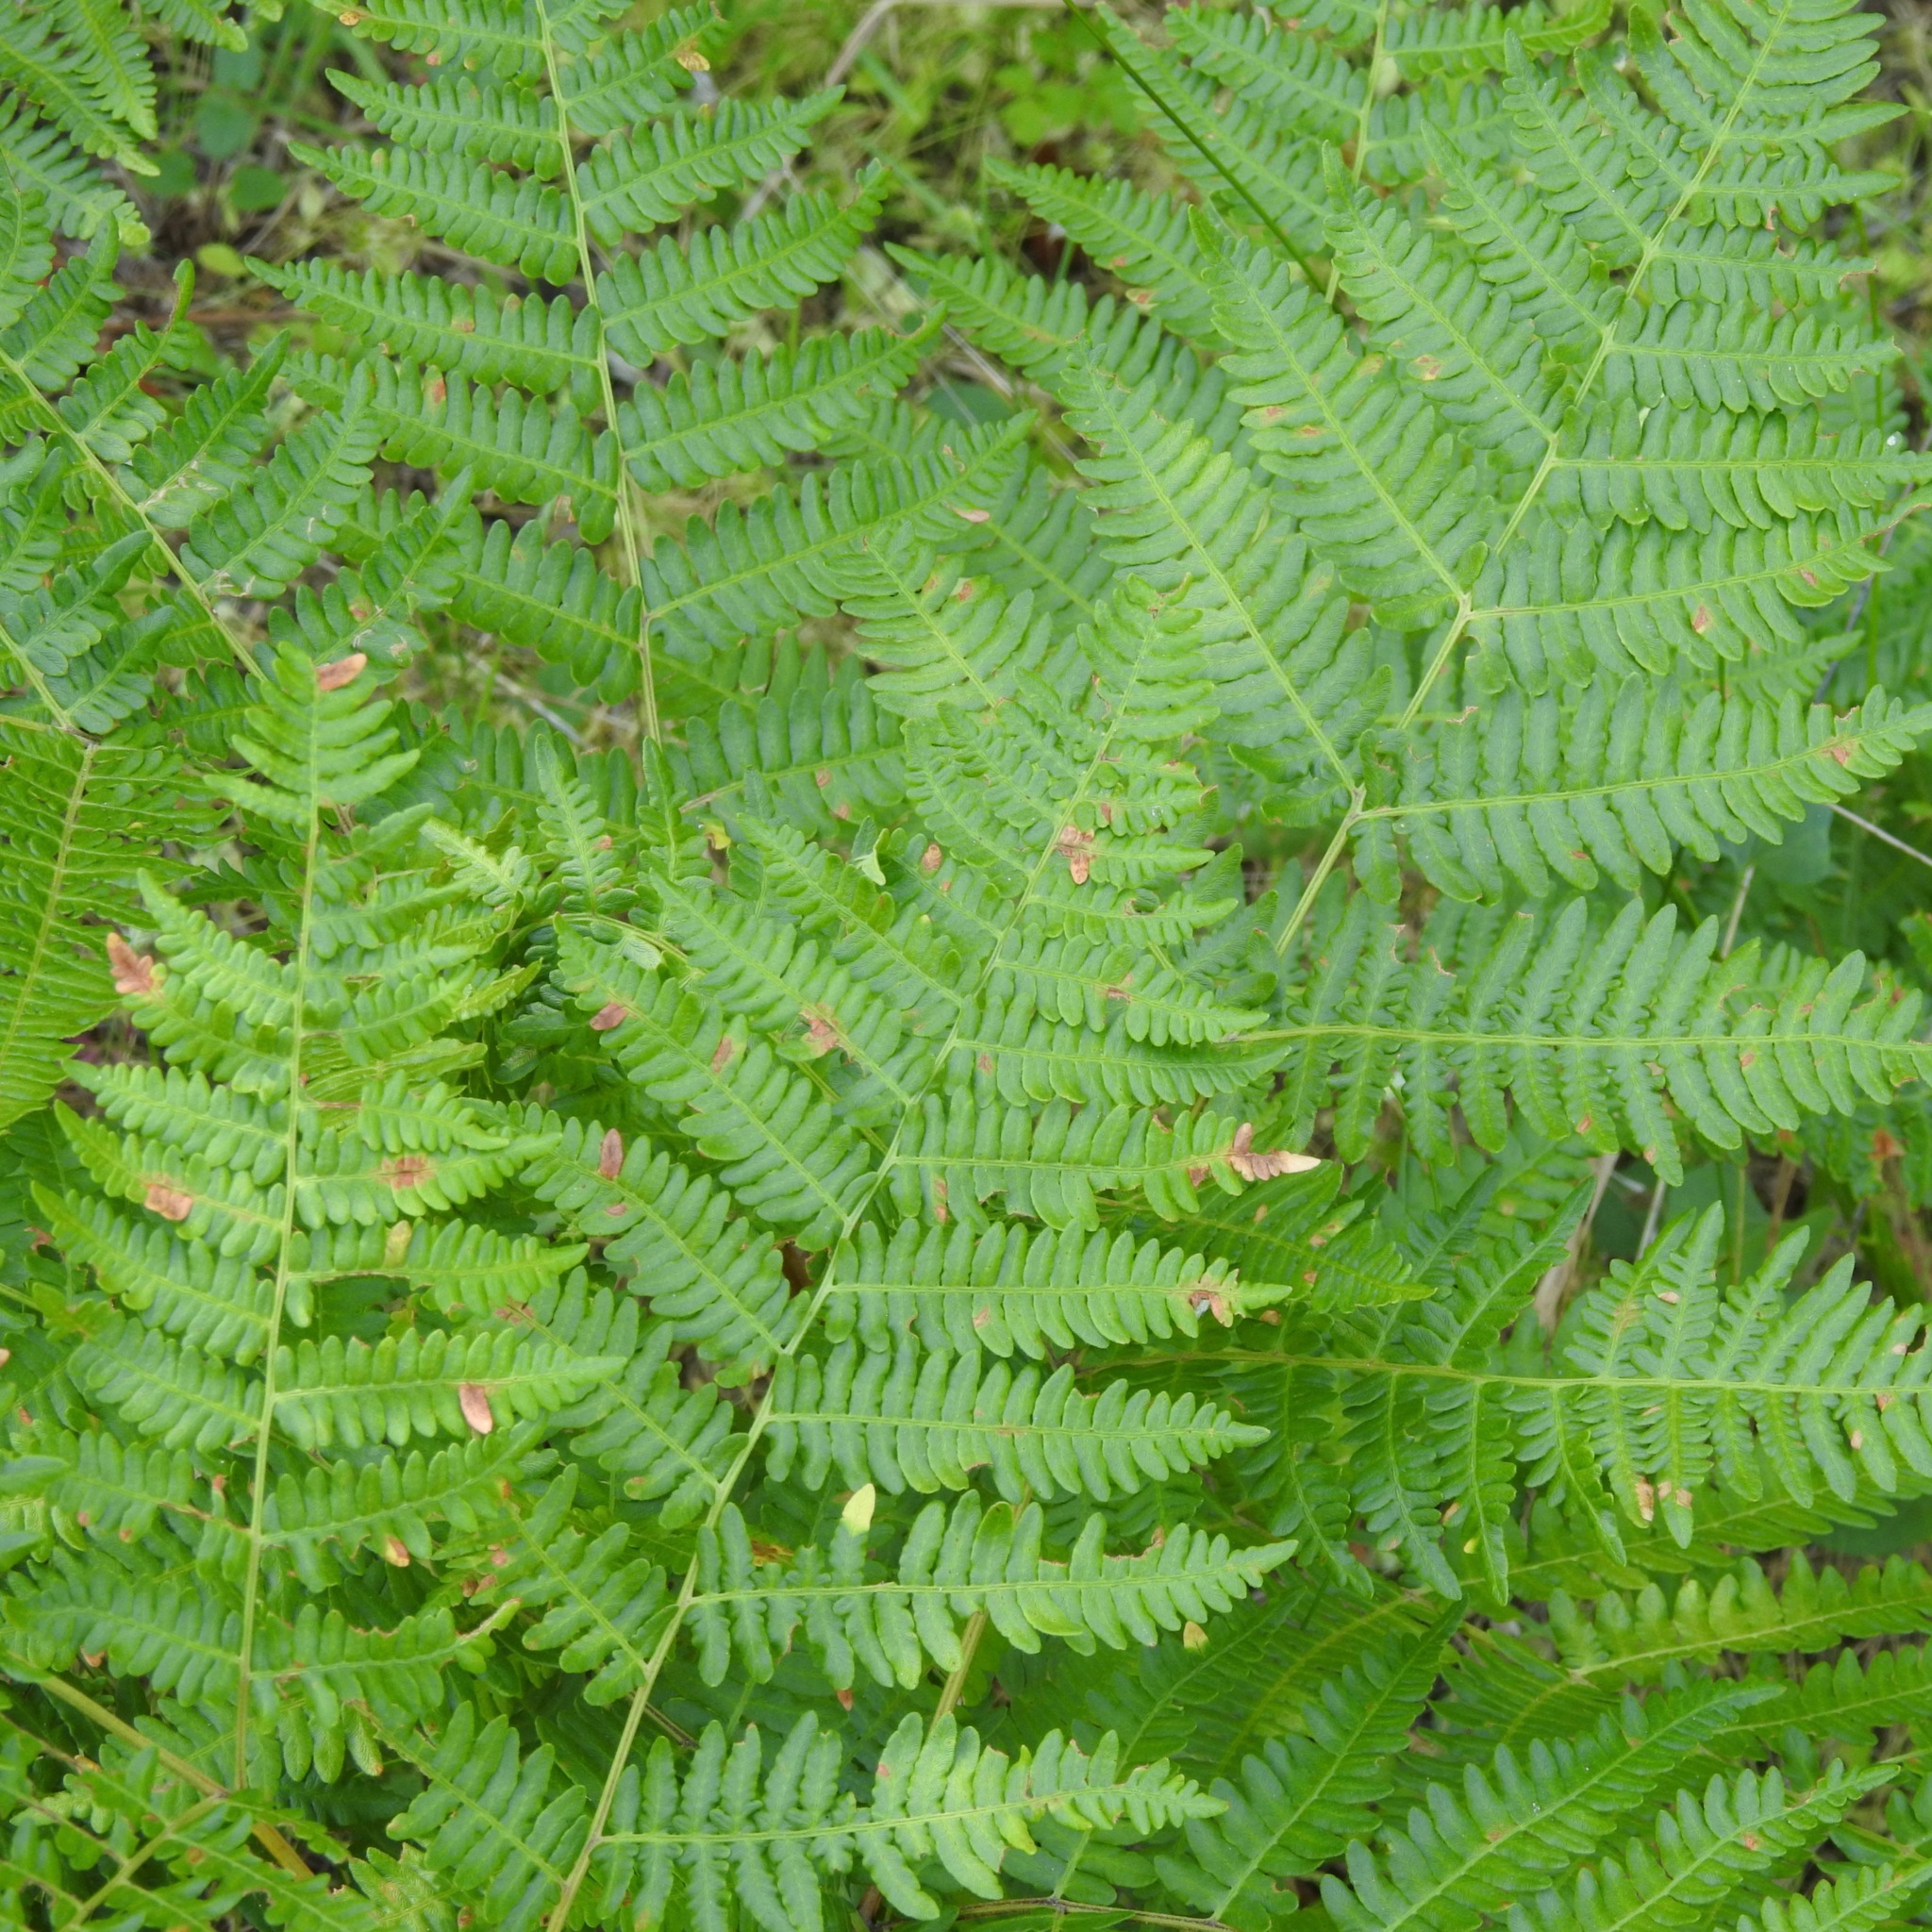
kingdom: Plantae
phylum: Tracheophyta
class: Polypodiopsida
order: Polypodiales
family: Dennstaedtiaceae
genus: Pteridium
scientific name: Pteridium aquilinum
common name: Bracken
